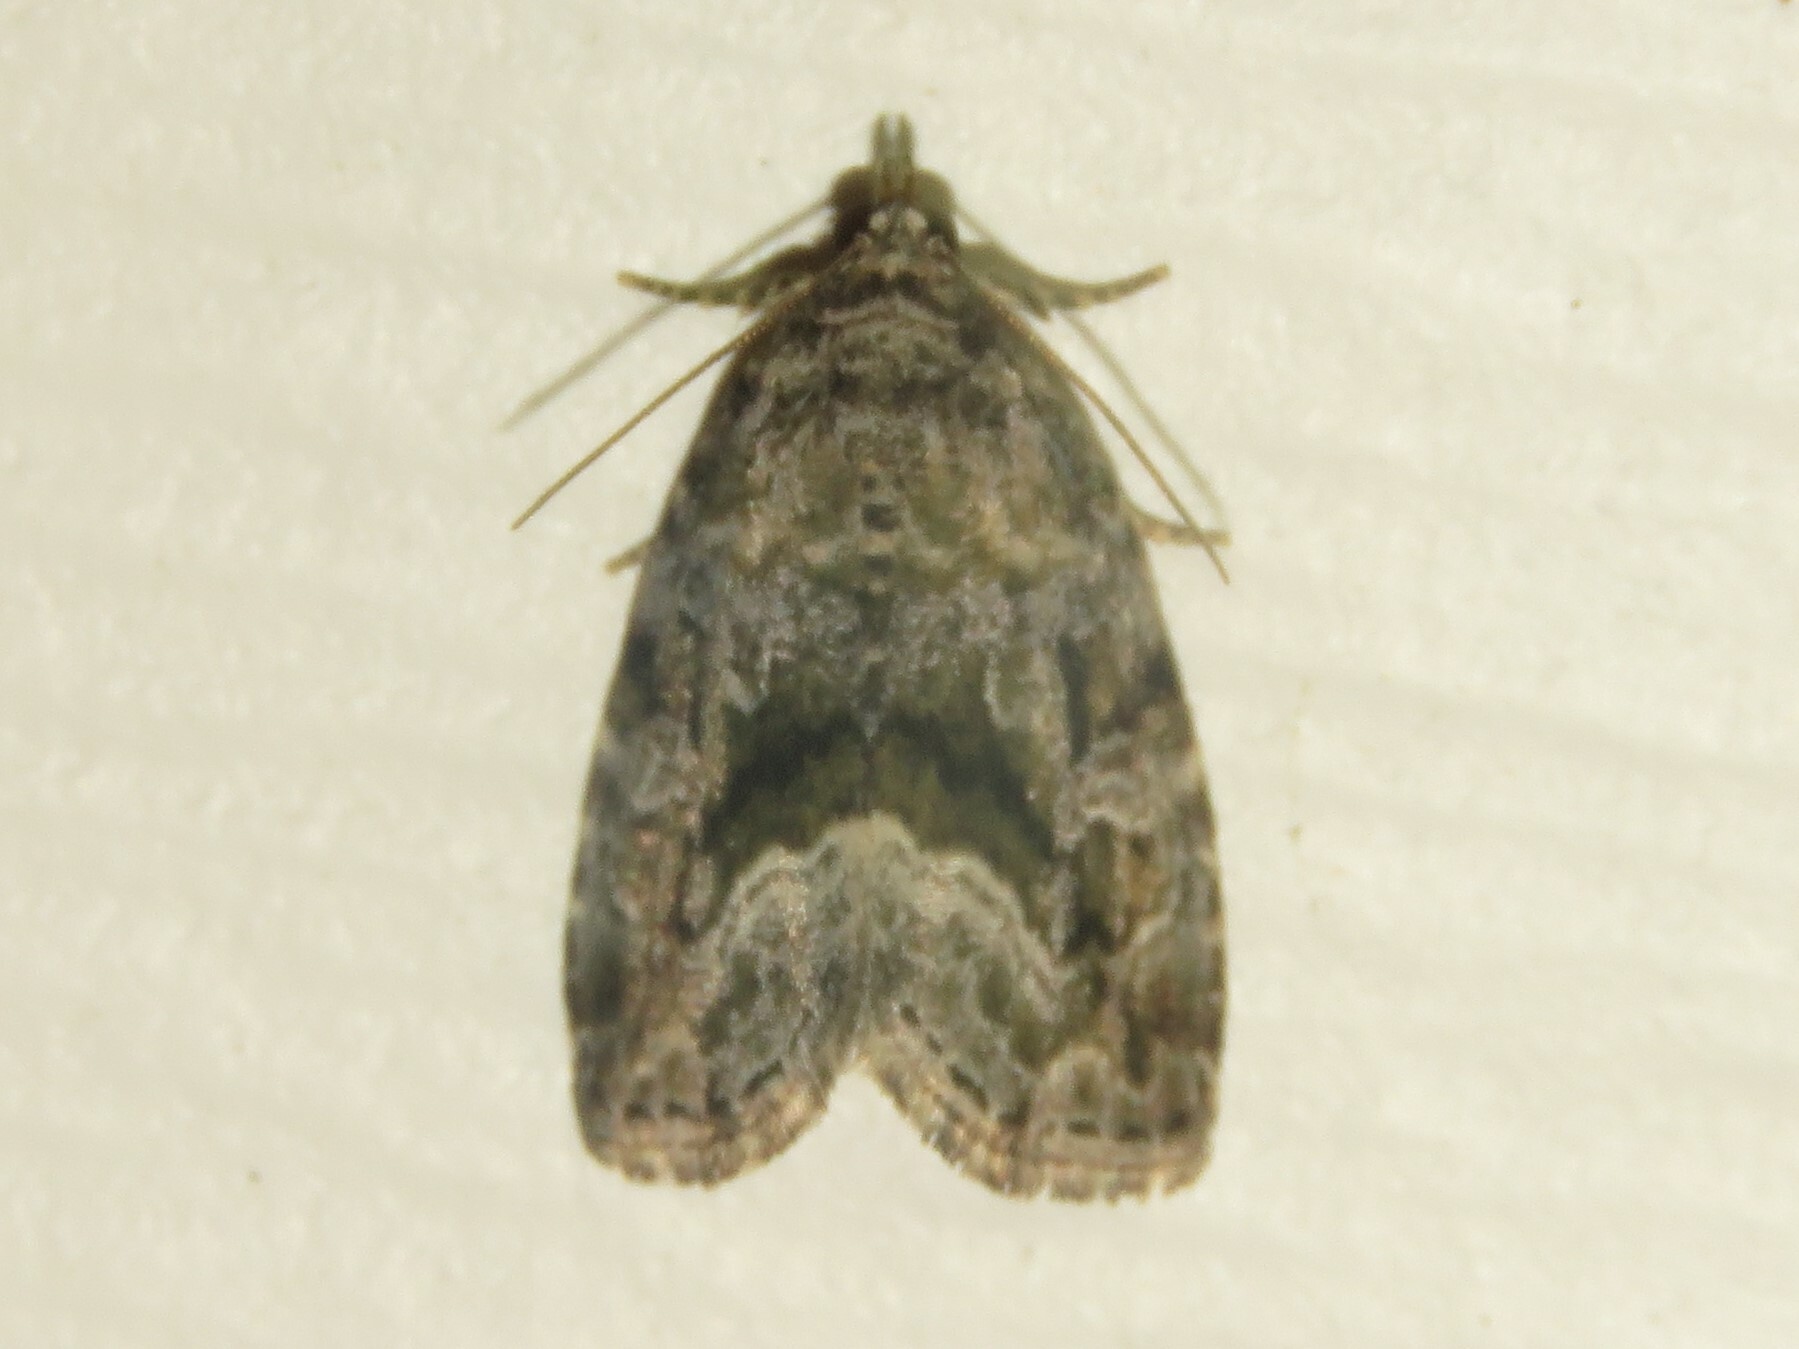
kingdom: Animalia
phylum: Arthropoda
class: Insecta
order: Lepidoptera
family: Noctuidae
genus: Protodeltote
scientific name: Protodeltote muscosula
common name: Large mossy glyph
